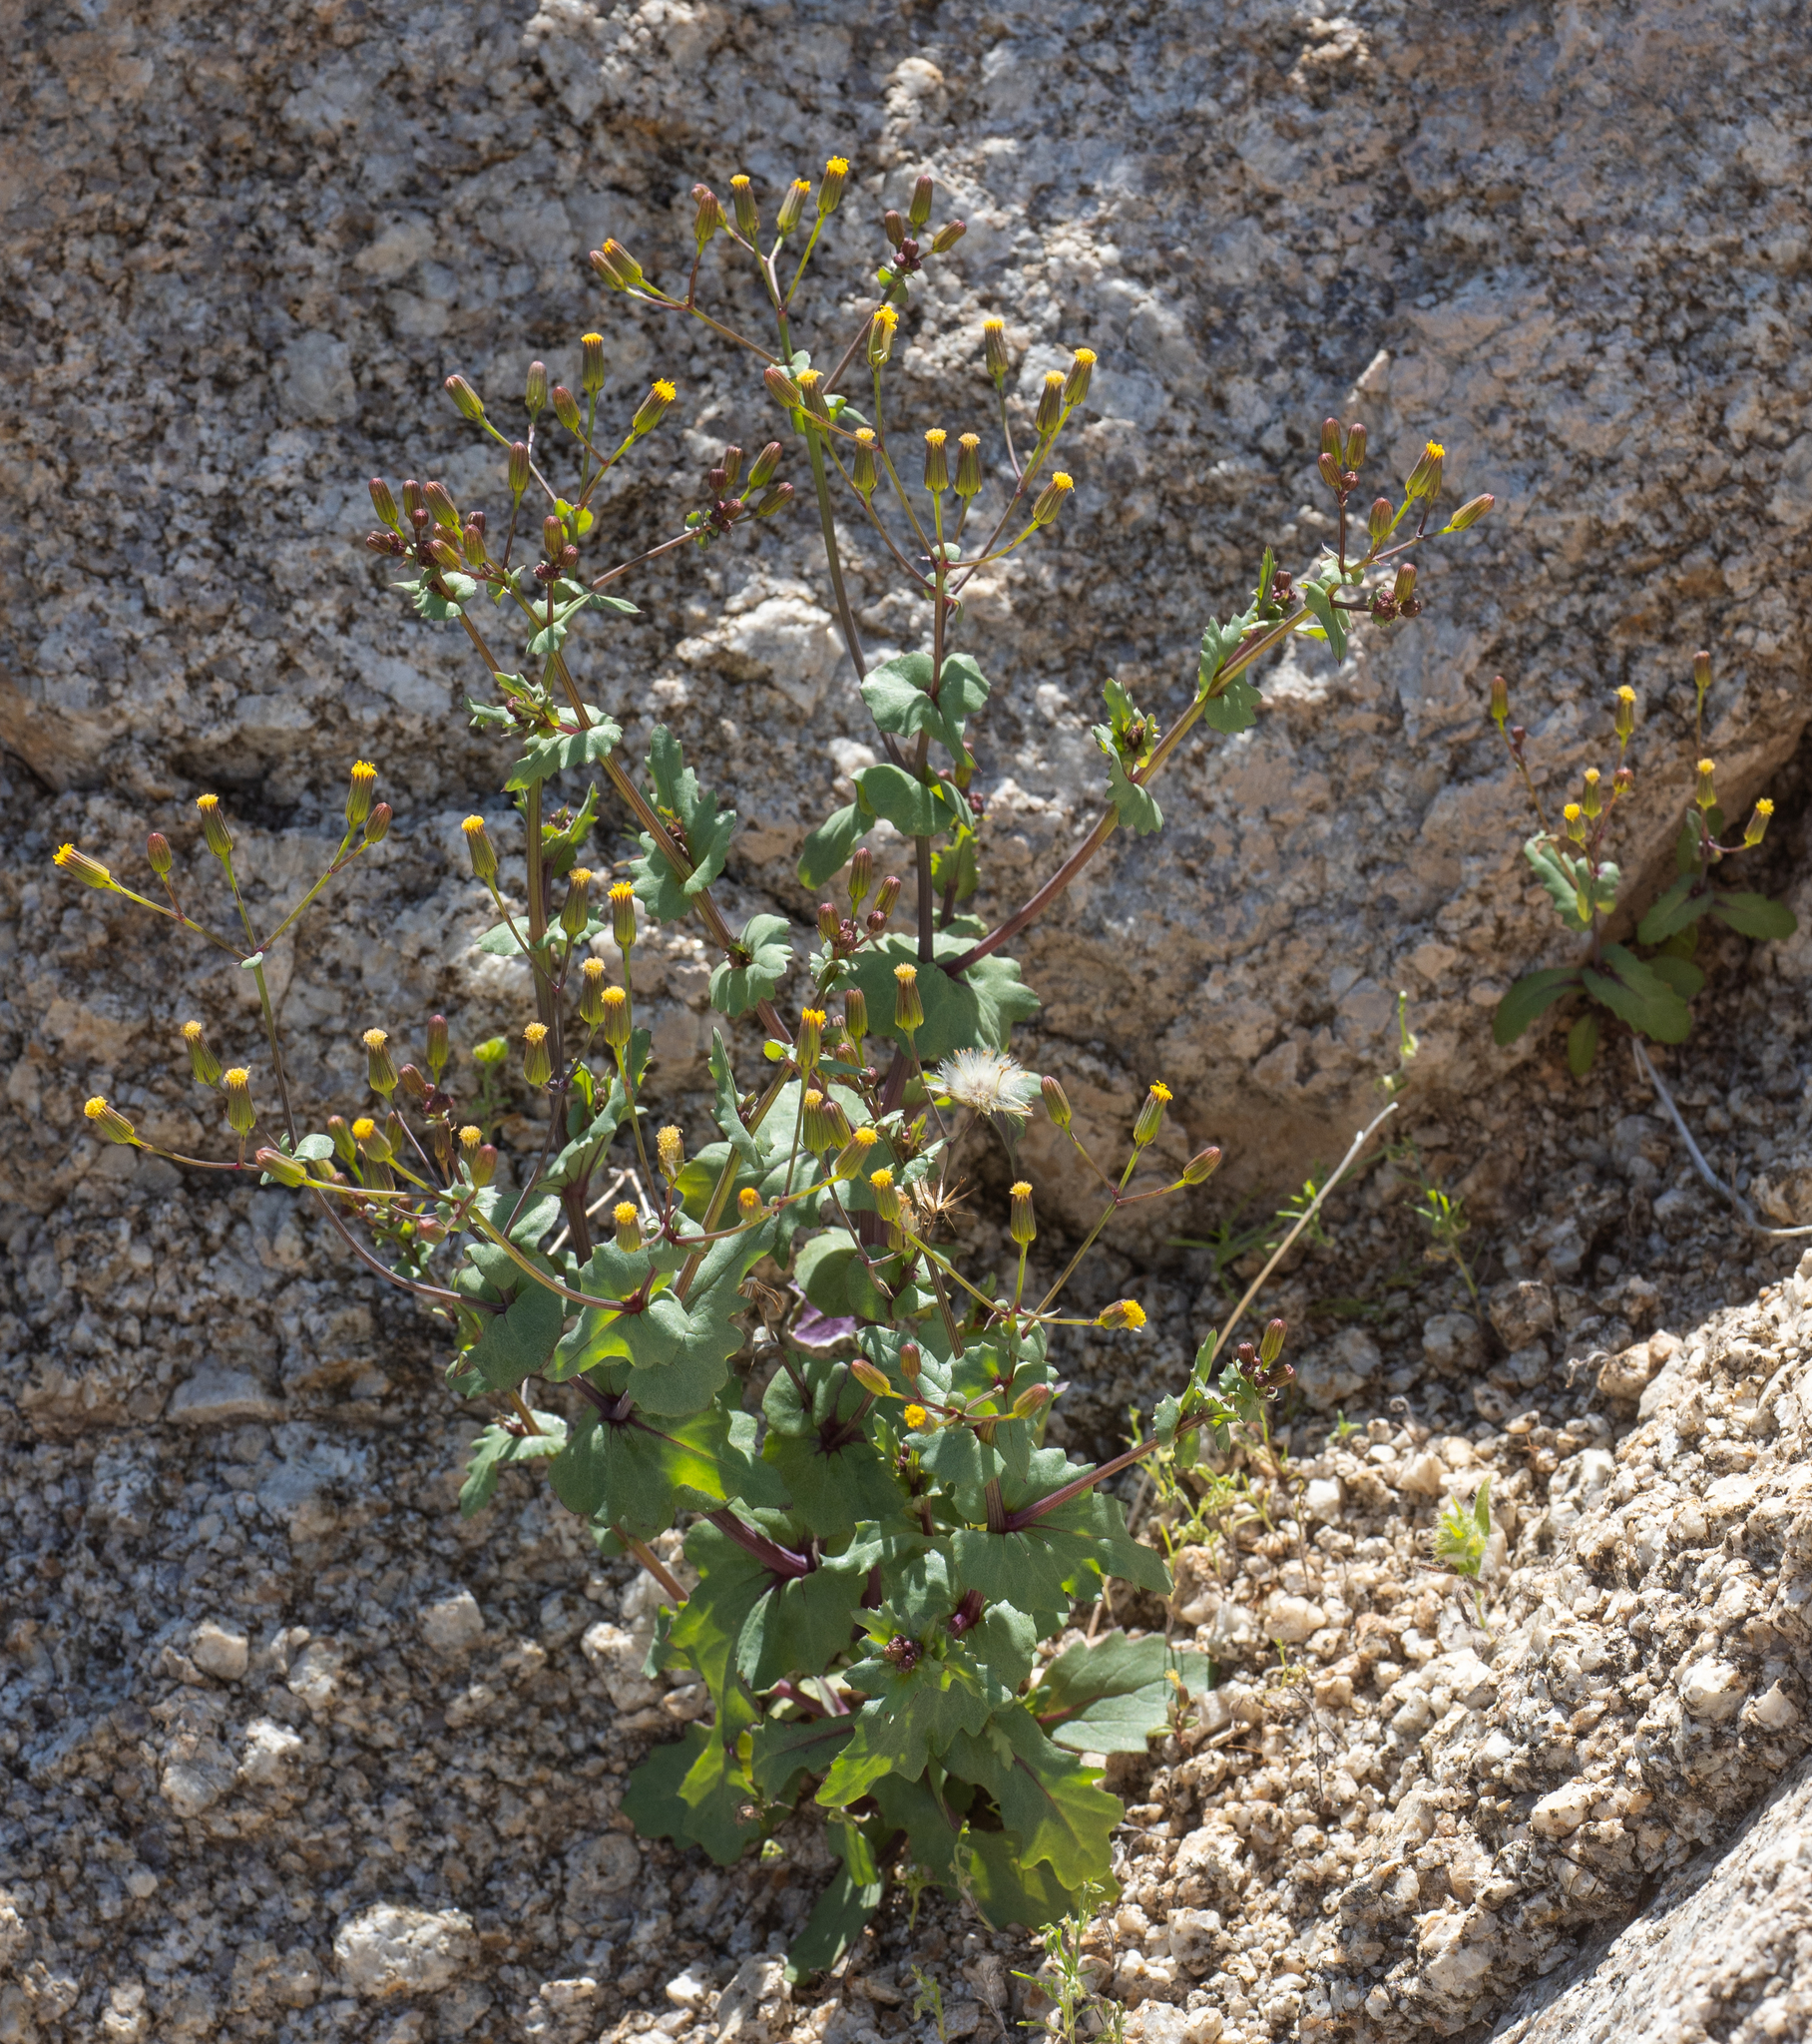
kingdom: Plantae
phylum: Tracheophyta
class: Magnoliopsida
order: Asterales
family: Asteraceae
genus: Senecio
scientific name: Senecio mohavensis
